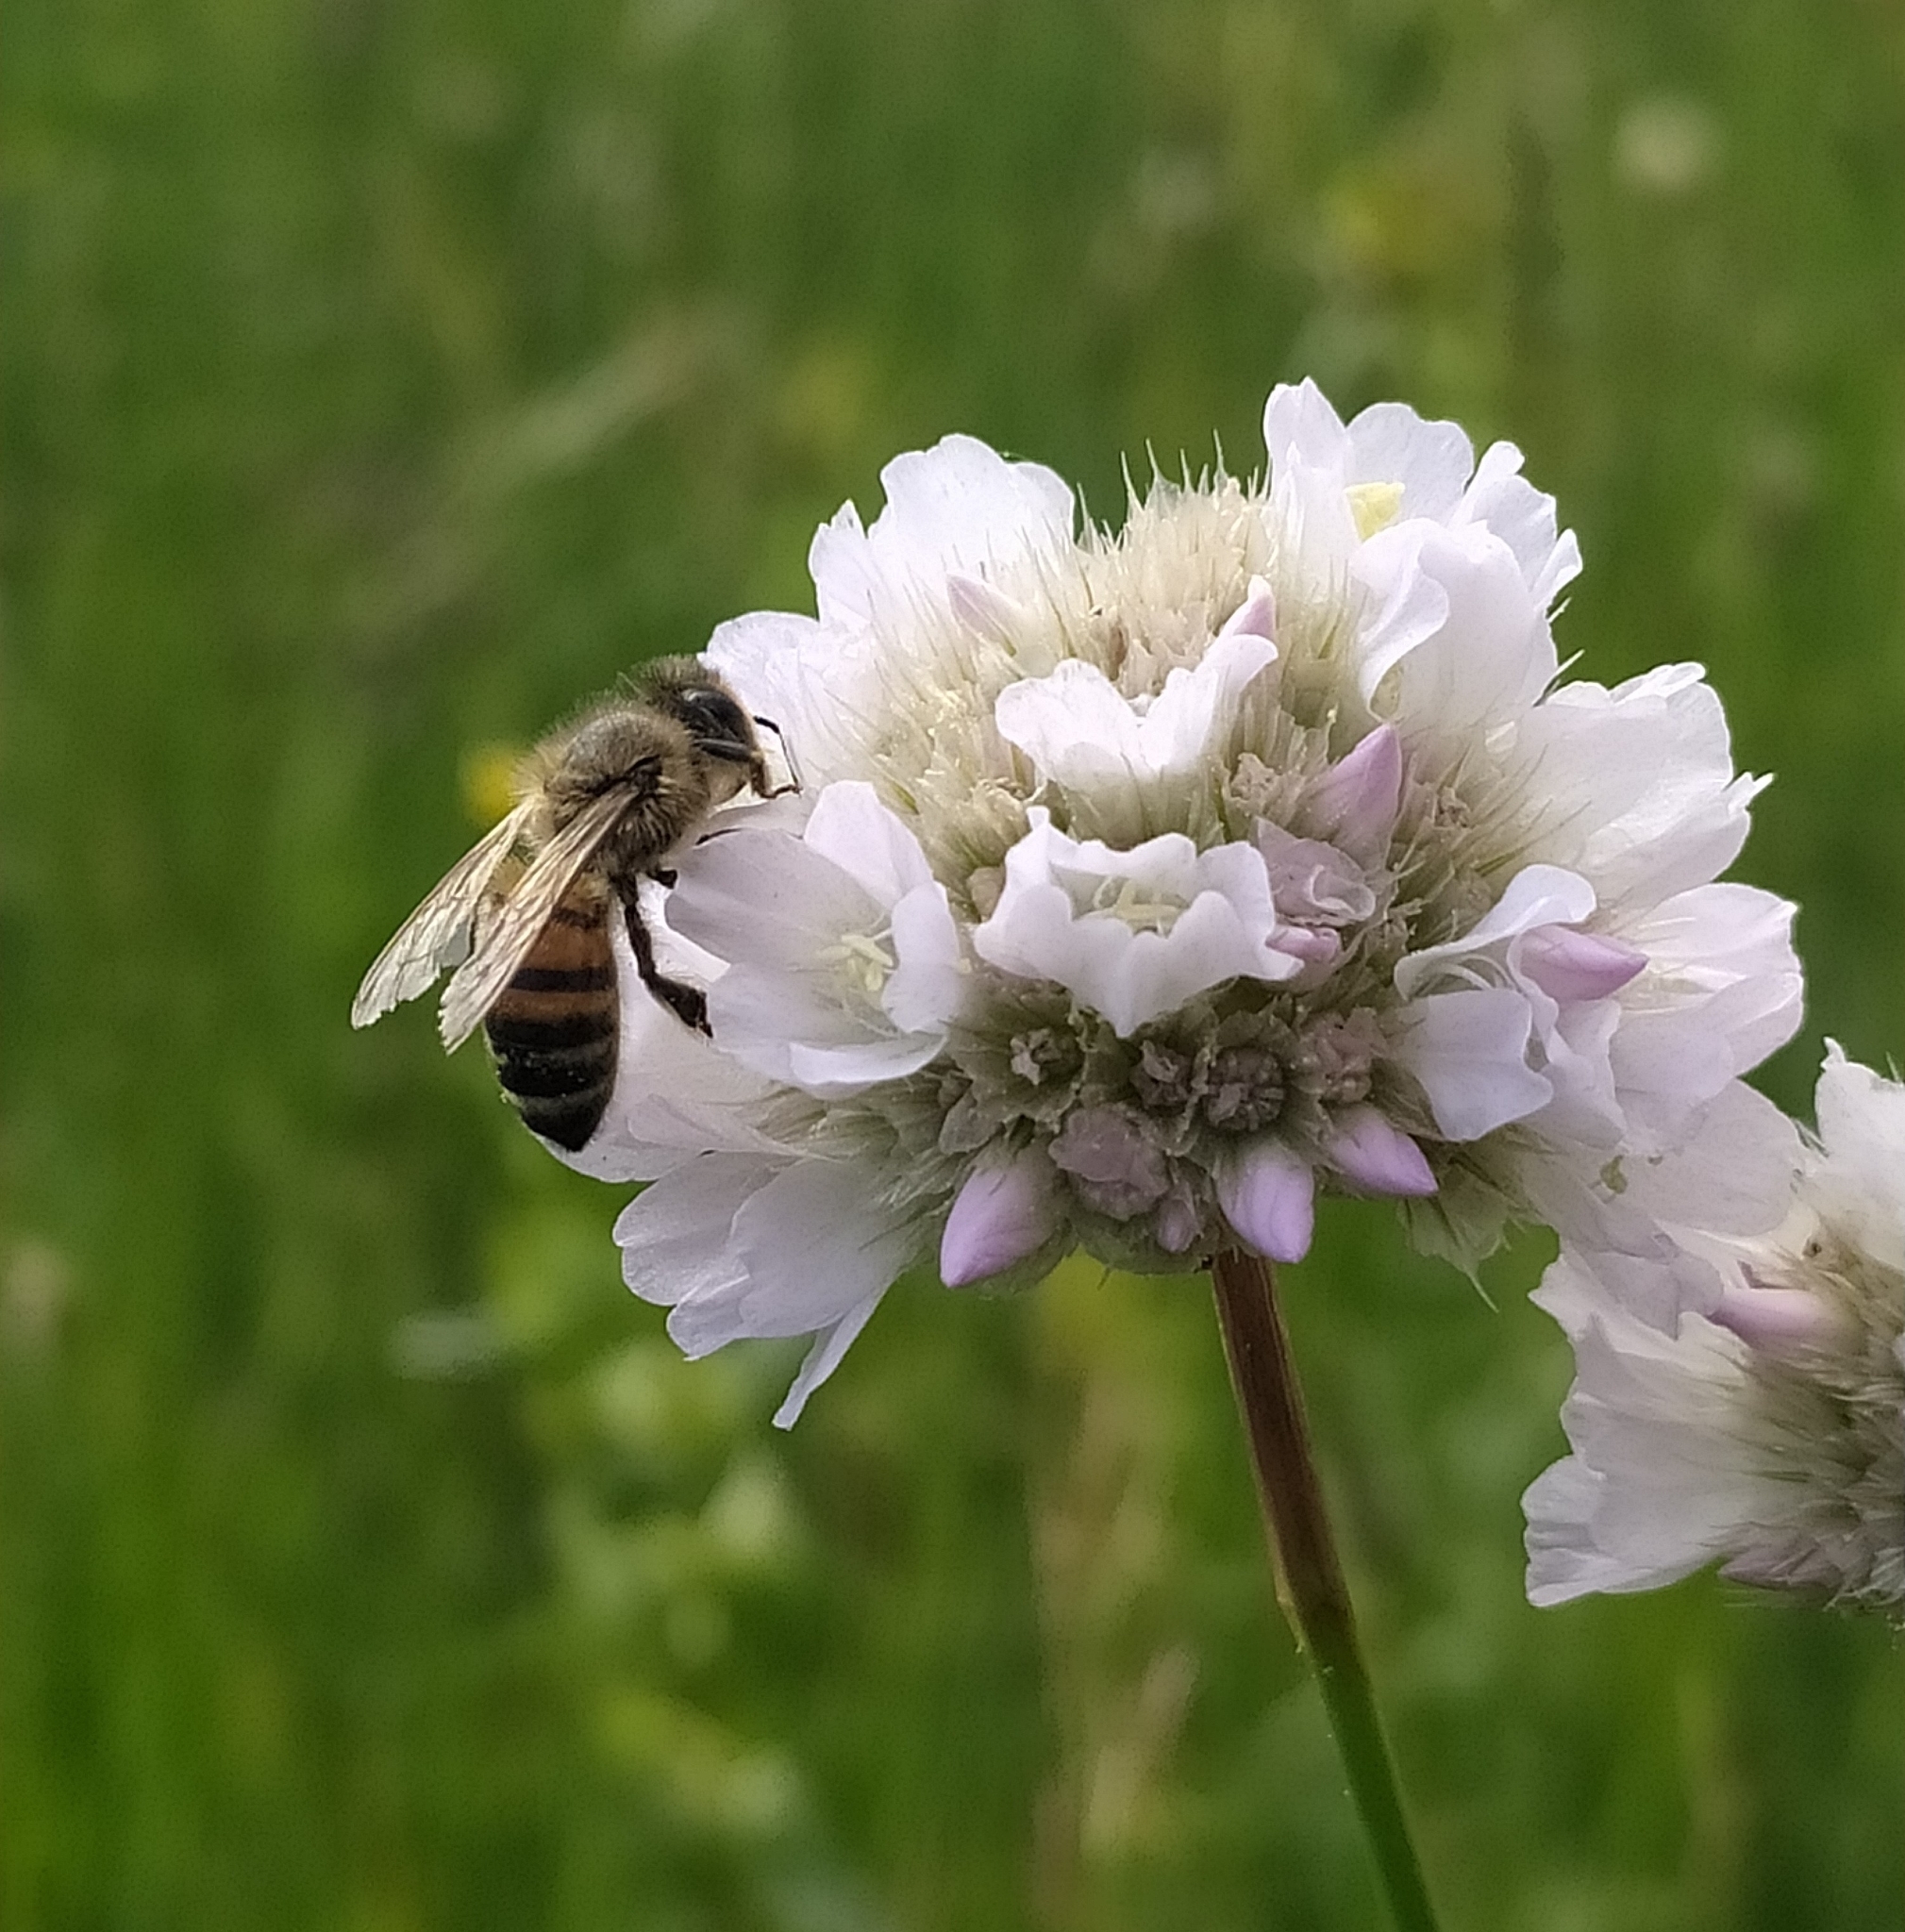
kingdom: Animalia
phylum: Arthropoda
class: Insecta
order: Hymenoptera
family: Apidae
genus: Apis
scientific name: Apis mellifera
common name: Honey bee
